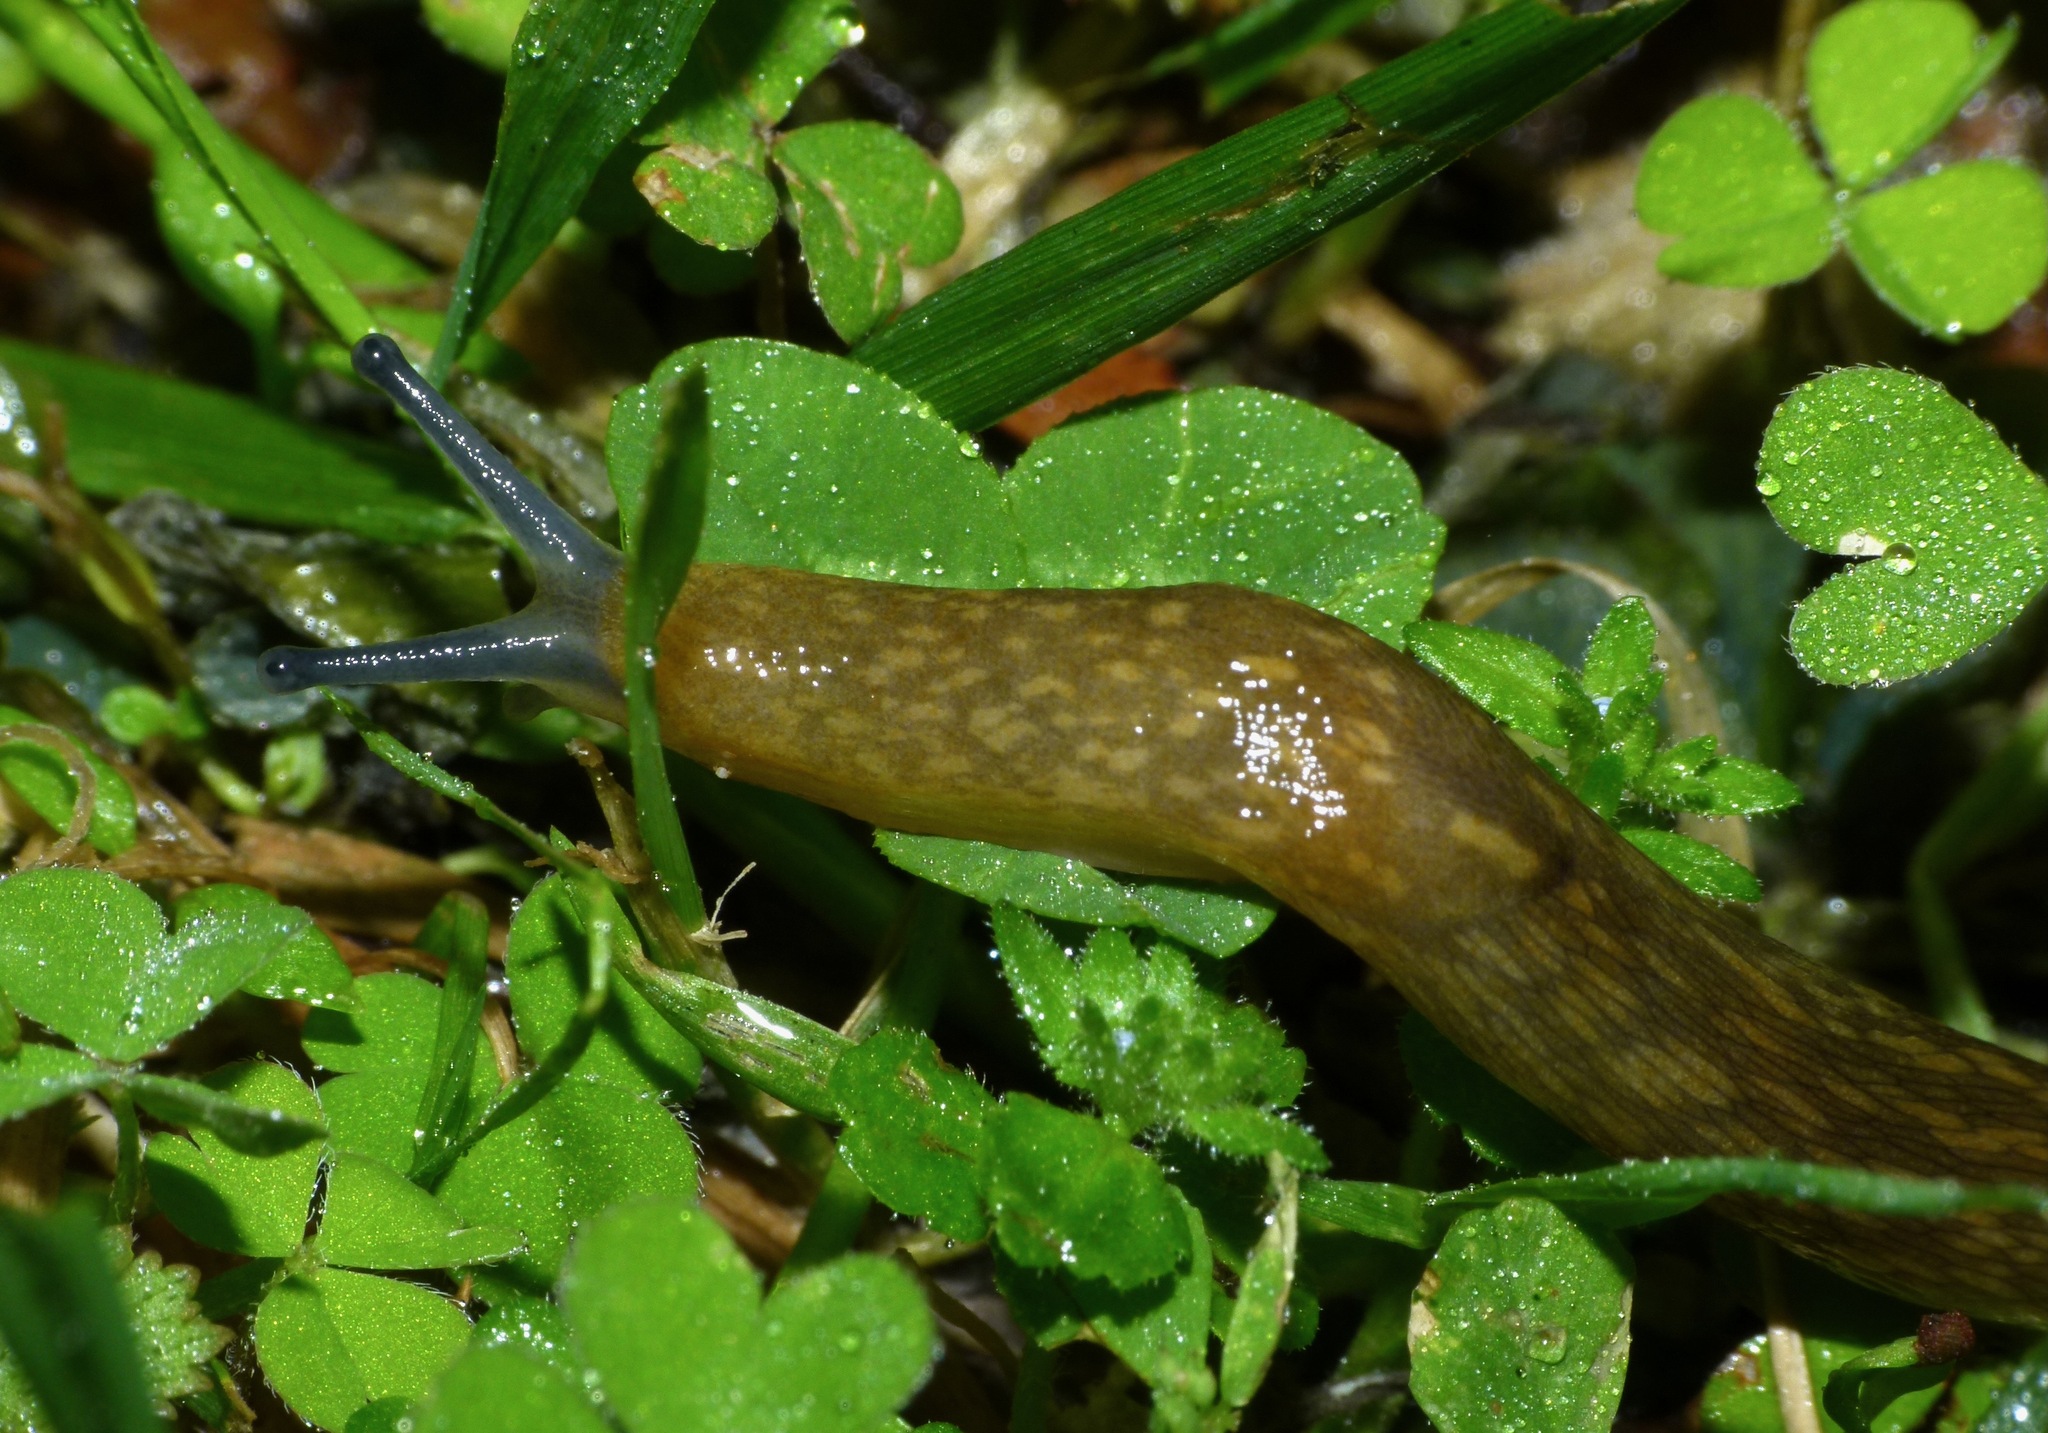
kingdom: Animalia
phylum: Mollusca
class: Gastropoda
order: Stylommatophora
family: Limacidae
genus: Limacus
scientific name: Limacus flavus
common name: Yellow gardenslug
